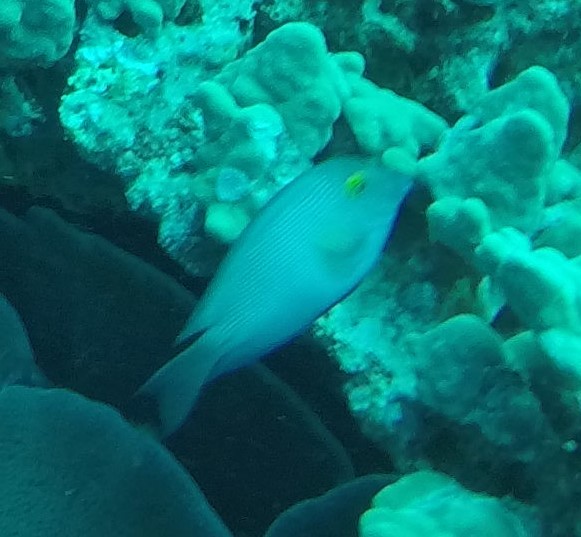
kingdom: Animalia
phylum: Chordata
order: Perciformes
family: Acanthuridae
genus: Ctenochaetus
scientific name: Ctenochaetus strigosus
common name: Bristletoothed surgeonfish
